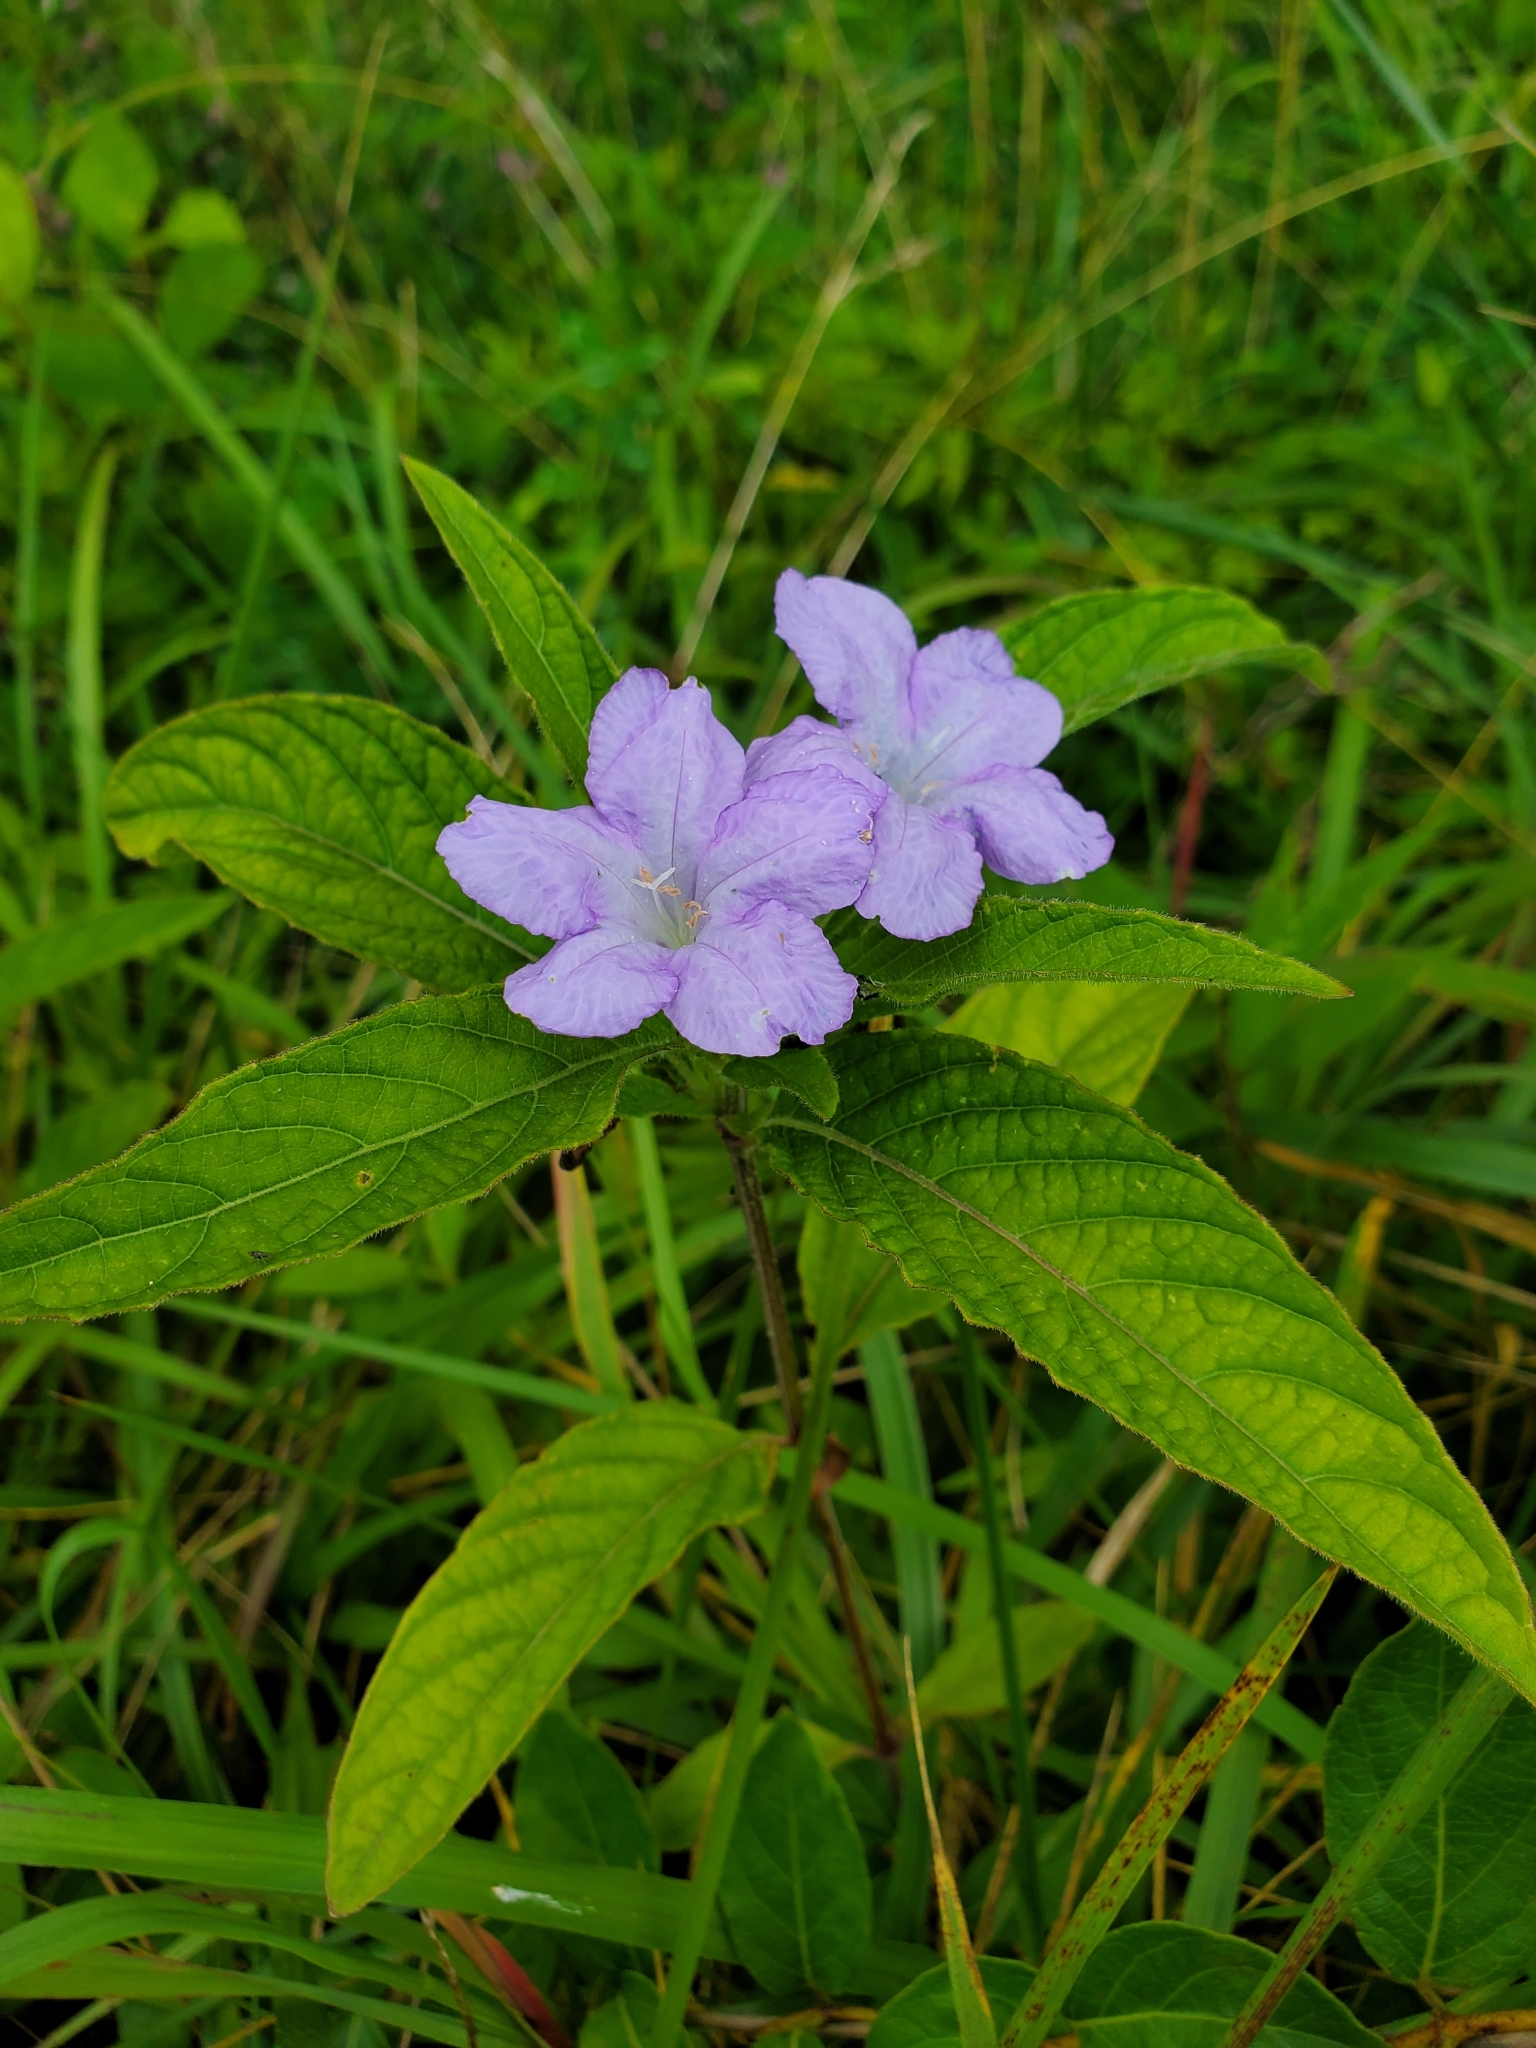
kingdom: Plantae
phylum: Tracheophyta
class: Magnoliopsida
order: Lamiales
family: Acanthaceae
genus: Ruellia
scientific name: Ruellia caroliniensis
